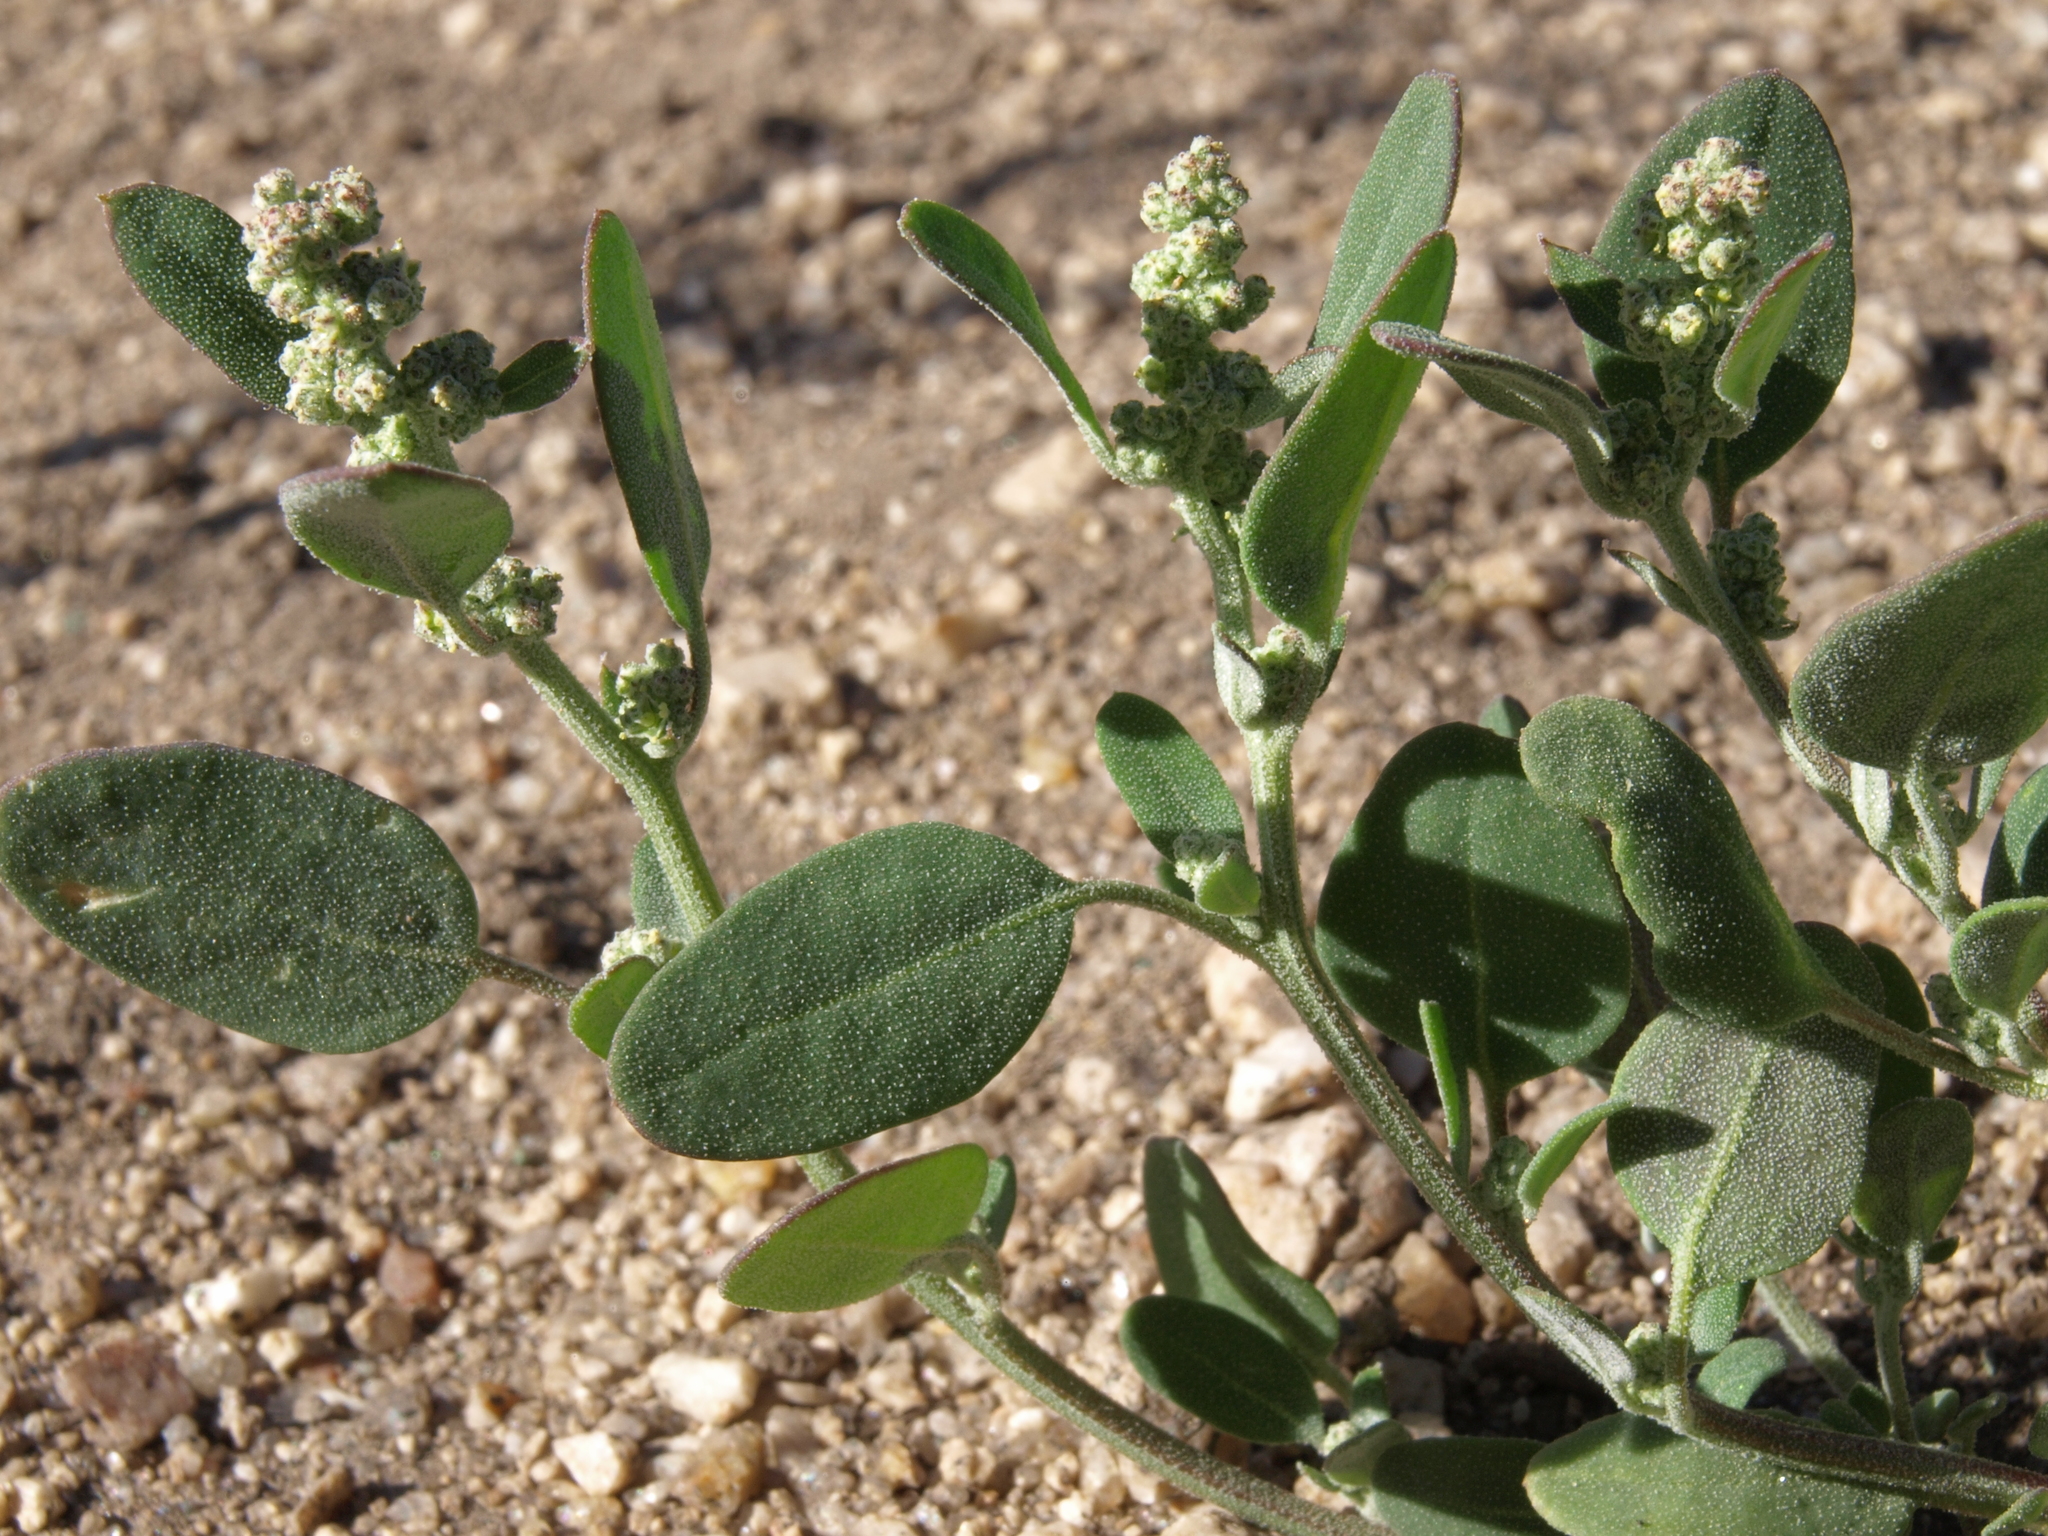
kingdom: Plantae
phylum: Tracheophyta
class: Magnoliopsida
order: Caryophyllales
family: Amaranthaceae
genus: Chenopodium
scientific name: Chenopodium atrovirens
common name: Dark goosefoot
